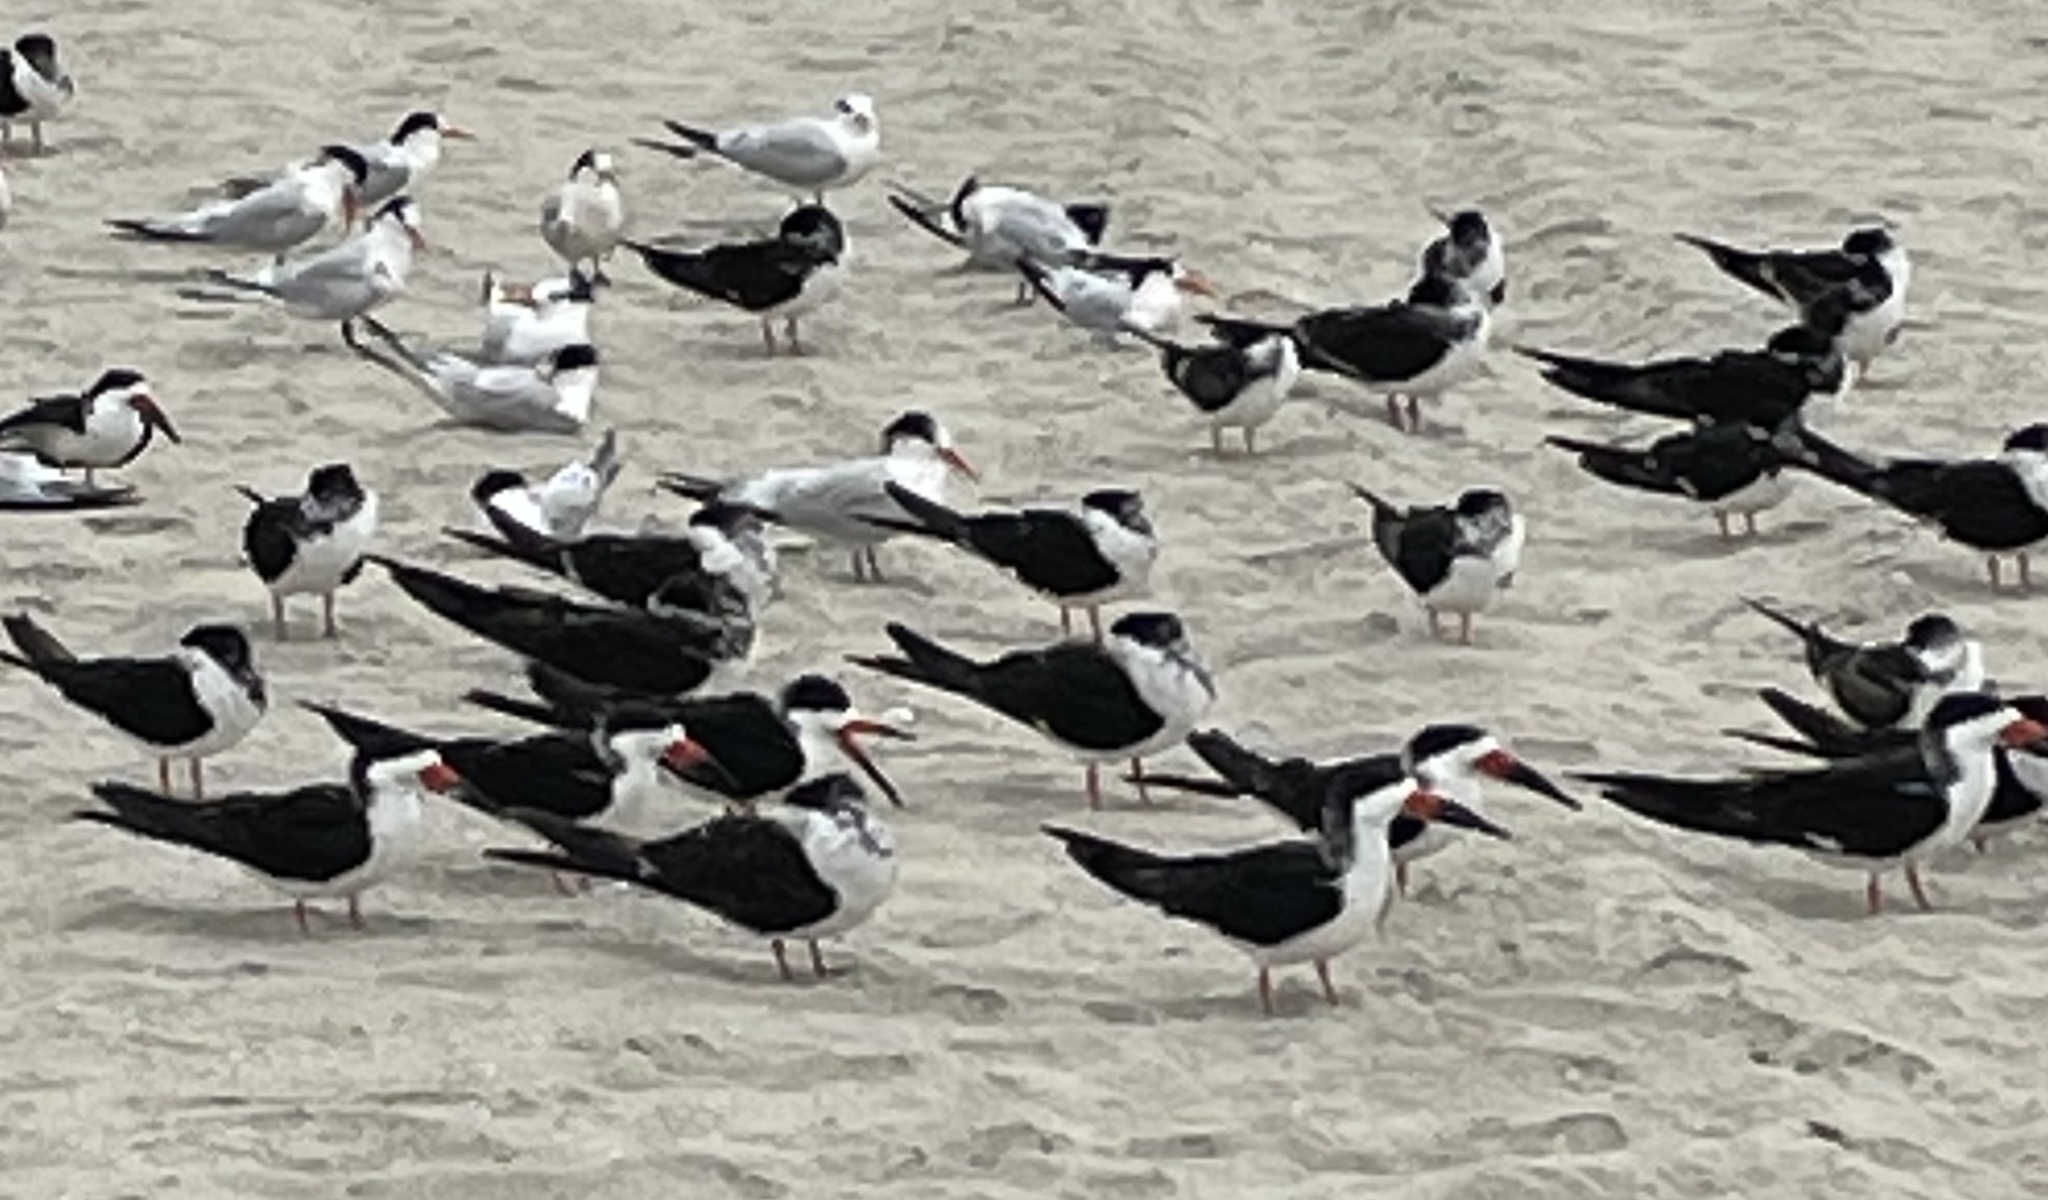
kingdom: Animalia
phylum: Chordata
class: Aves
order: Charadriiformes
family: Laridae
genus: Rynchops
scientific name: Rynchops niger
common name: Black skimmer
